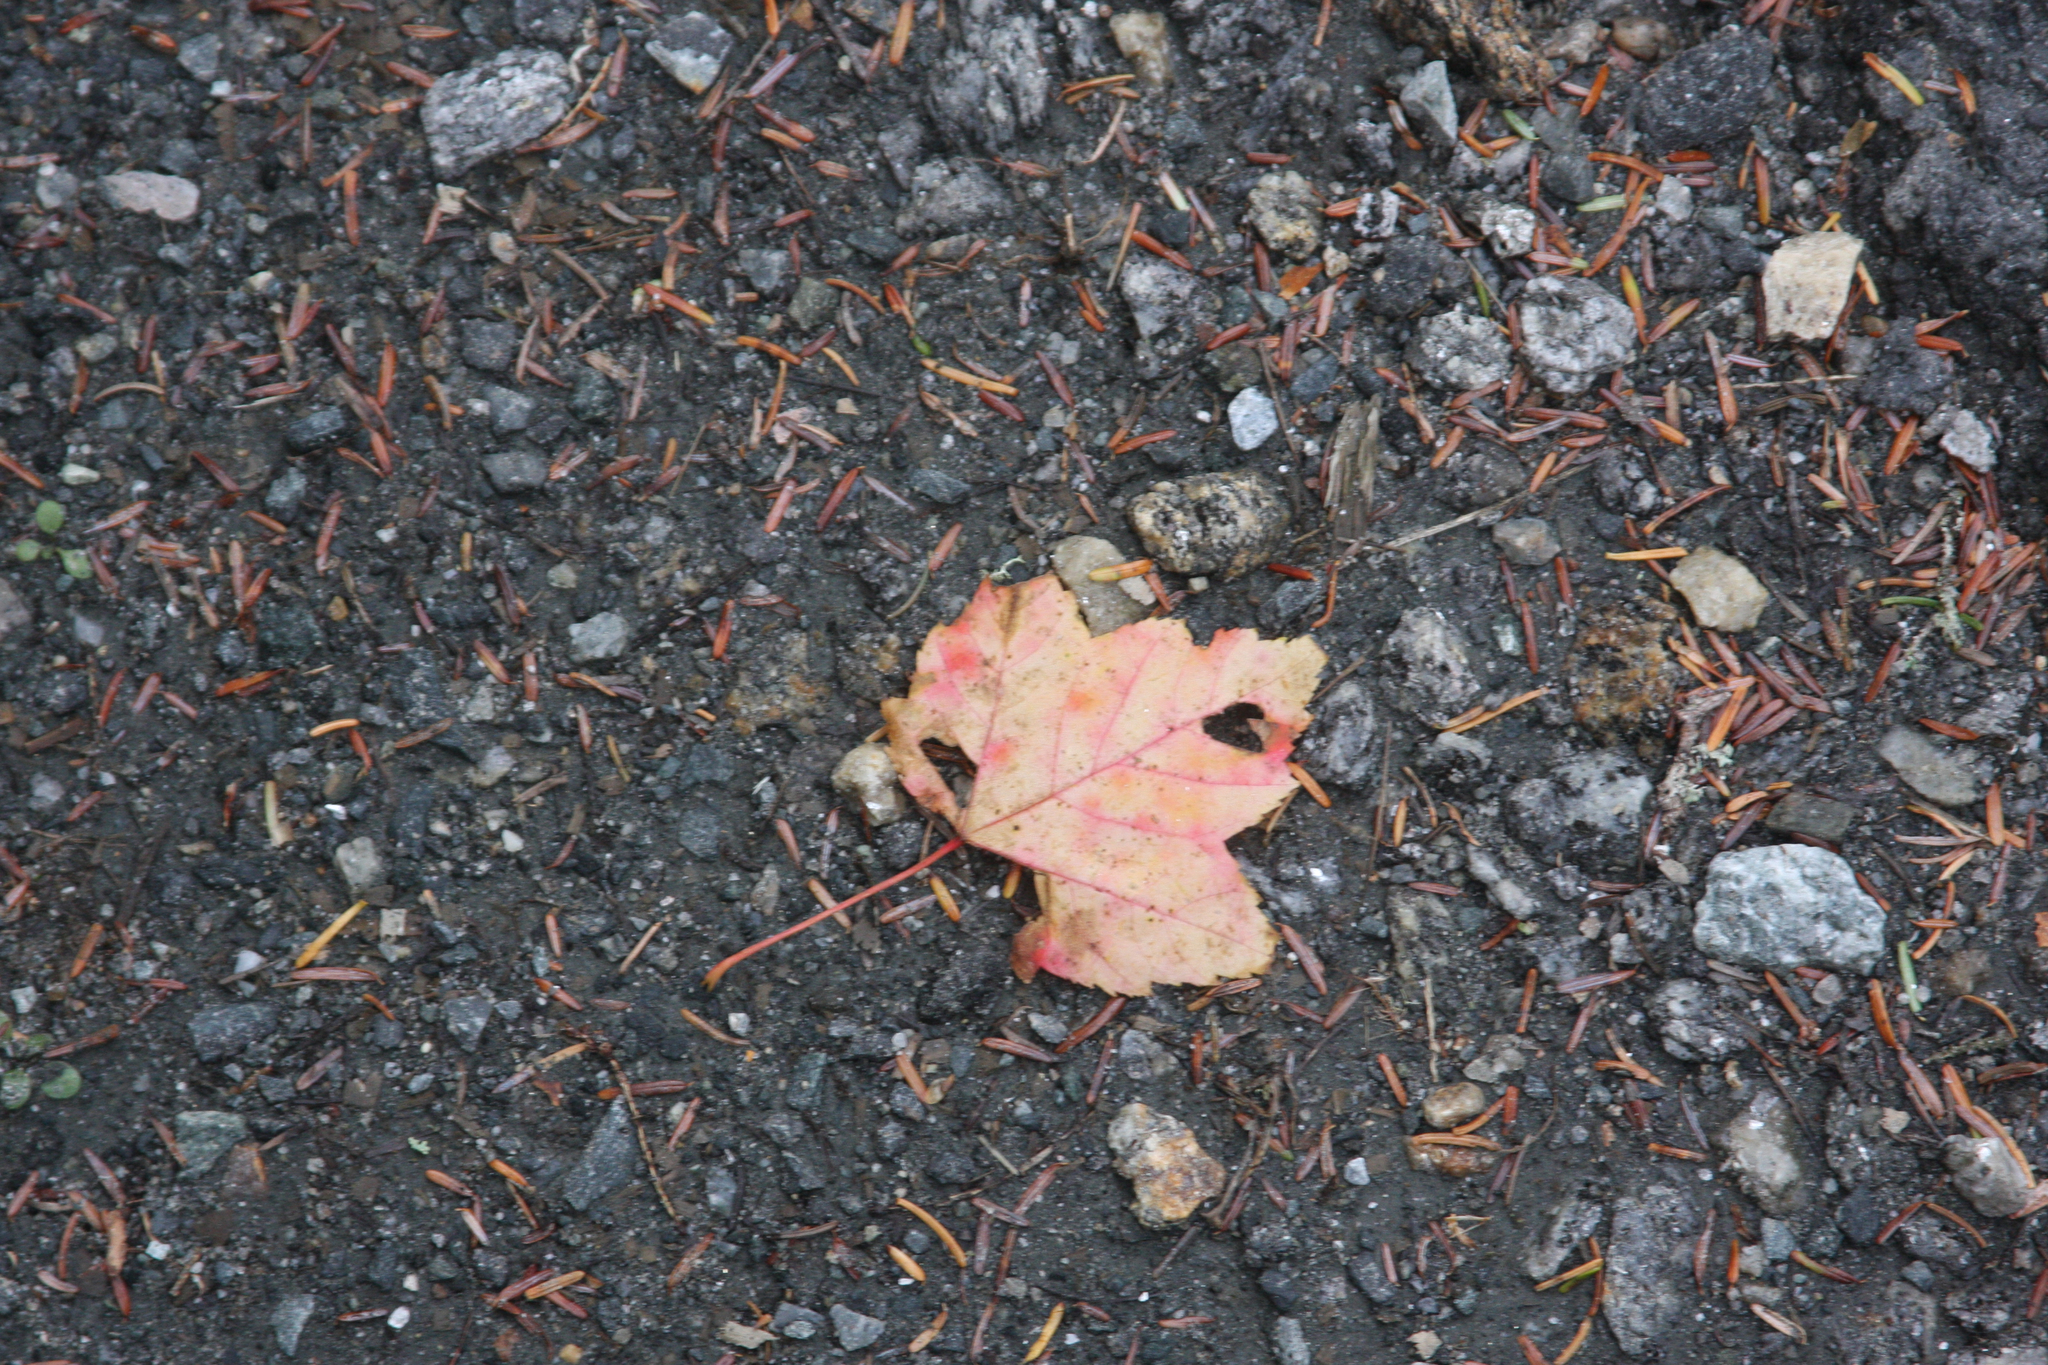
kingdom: Plantae
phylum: Tracheophyta
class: Magnoliopsida
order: Sapindales
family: Sapindaceae
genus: Acer
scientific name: Acer rubrum
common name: Red maple
